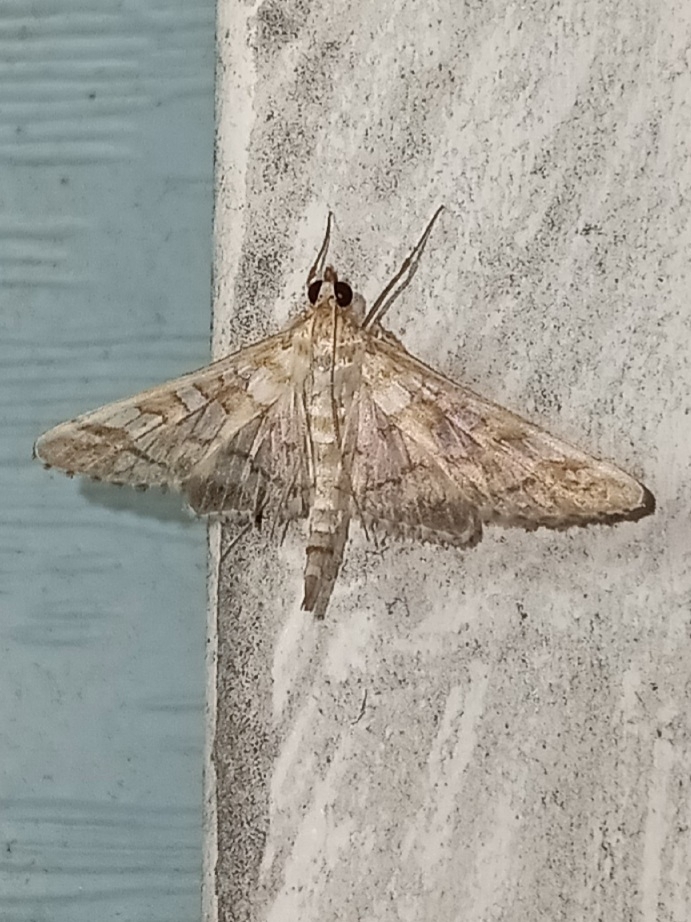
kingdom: Animalia
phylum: Arthropoda
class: Insecta
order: Lepidoptera
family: Crambidae
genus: Epipagis
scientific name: Epipagis fenestralis
